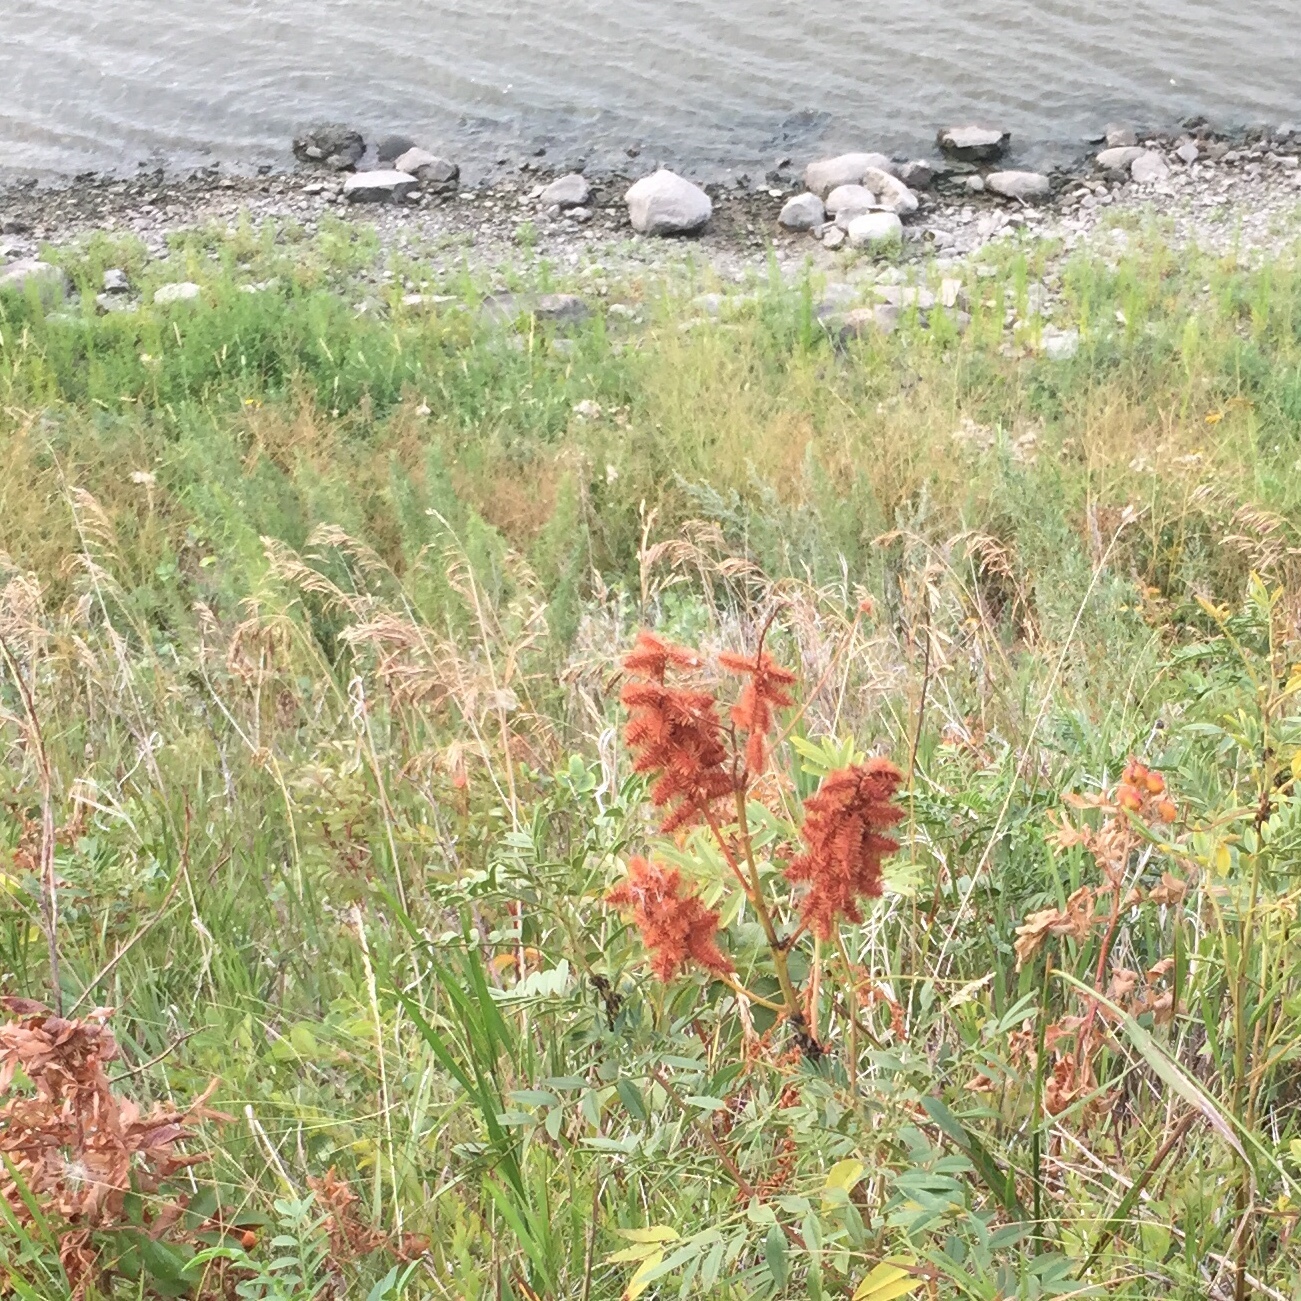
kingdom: Plantae
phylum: Tracheophyta
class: Magnoliopsida
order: Fabales
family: Fabaceae
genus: Glycyrrhiza
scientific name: Glycyrrhiza lepidota
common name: American liquorice
